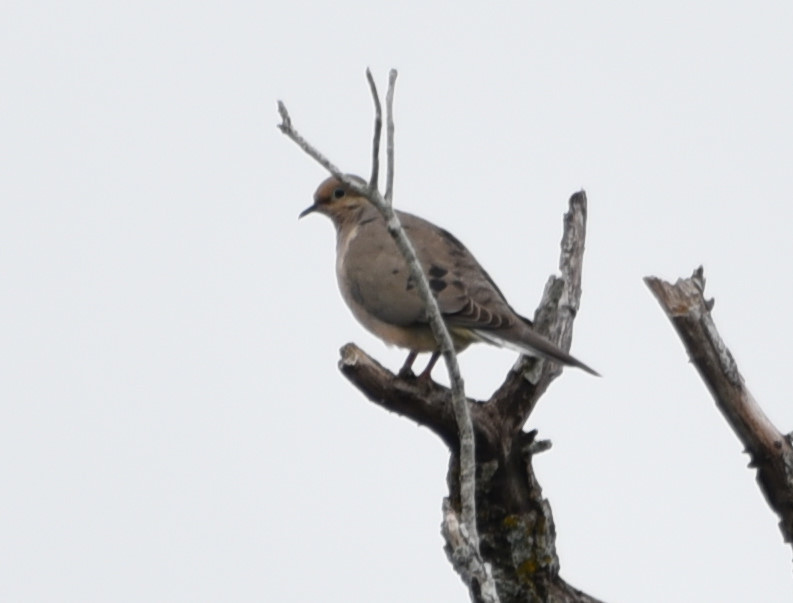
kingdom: Animalia
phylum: Chordata
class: Aves
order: Columbiformes
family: Columbidae
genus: Zenaida
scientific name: Zenaida macroura
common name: Mourning dove
